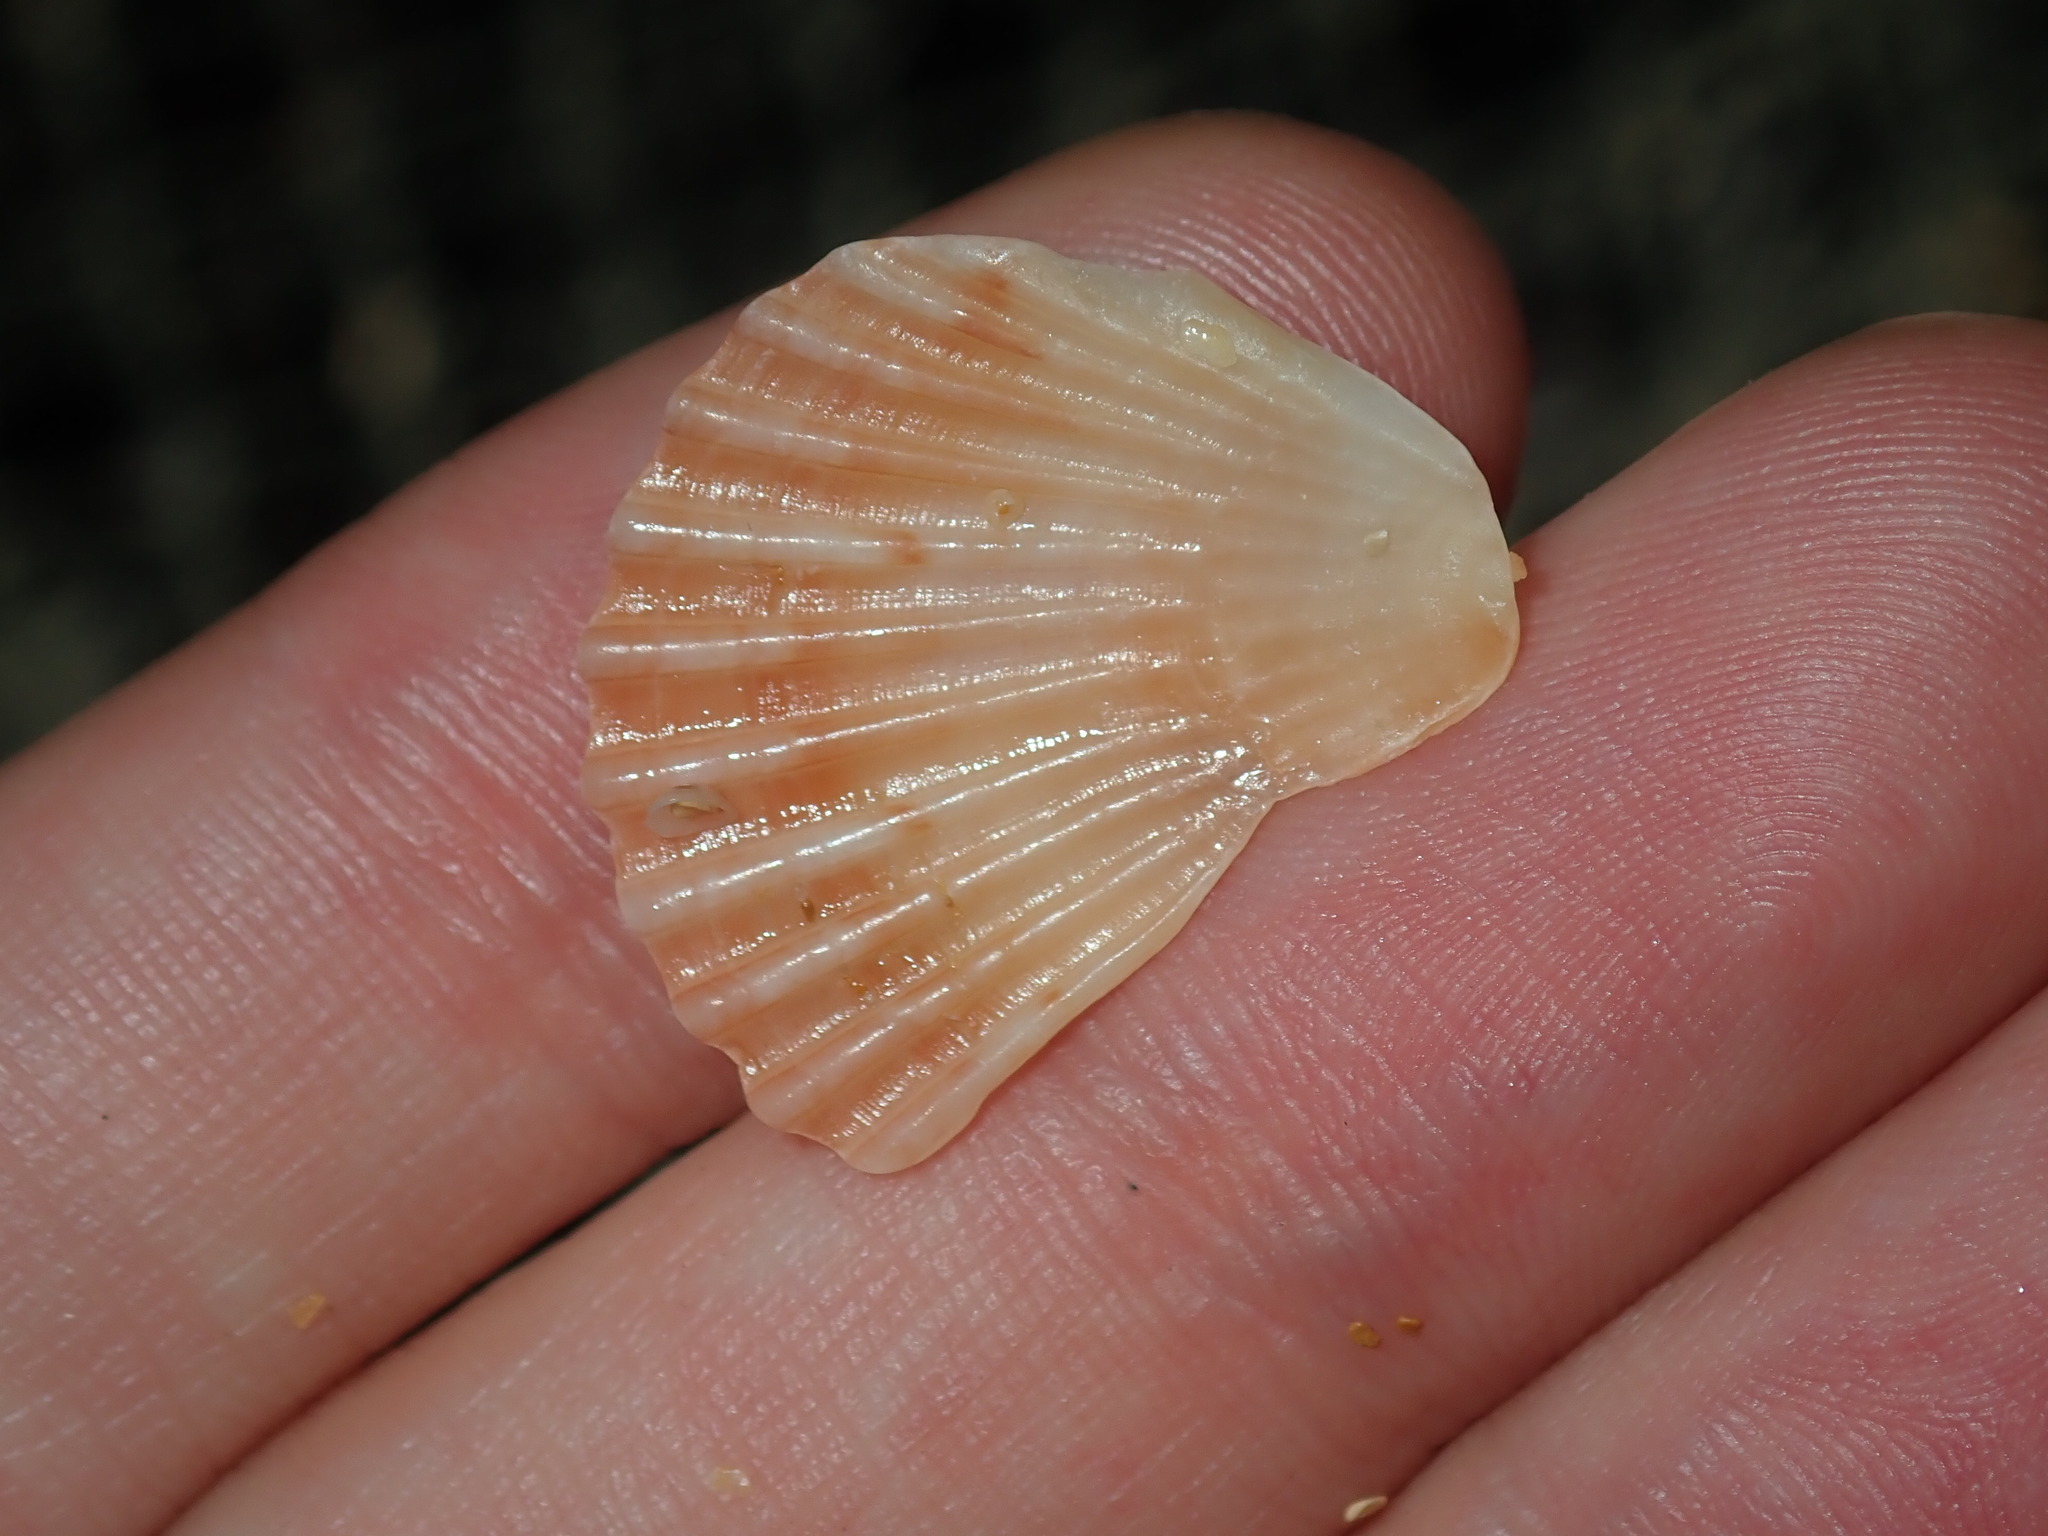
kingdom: Animalia
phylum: Mollusca
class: Bivalvia
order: Pectinida
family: Pectinidae
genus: Pecten
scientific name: Pecten fumatus
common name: Australian scallop
